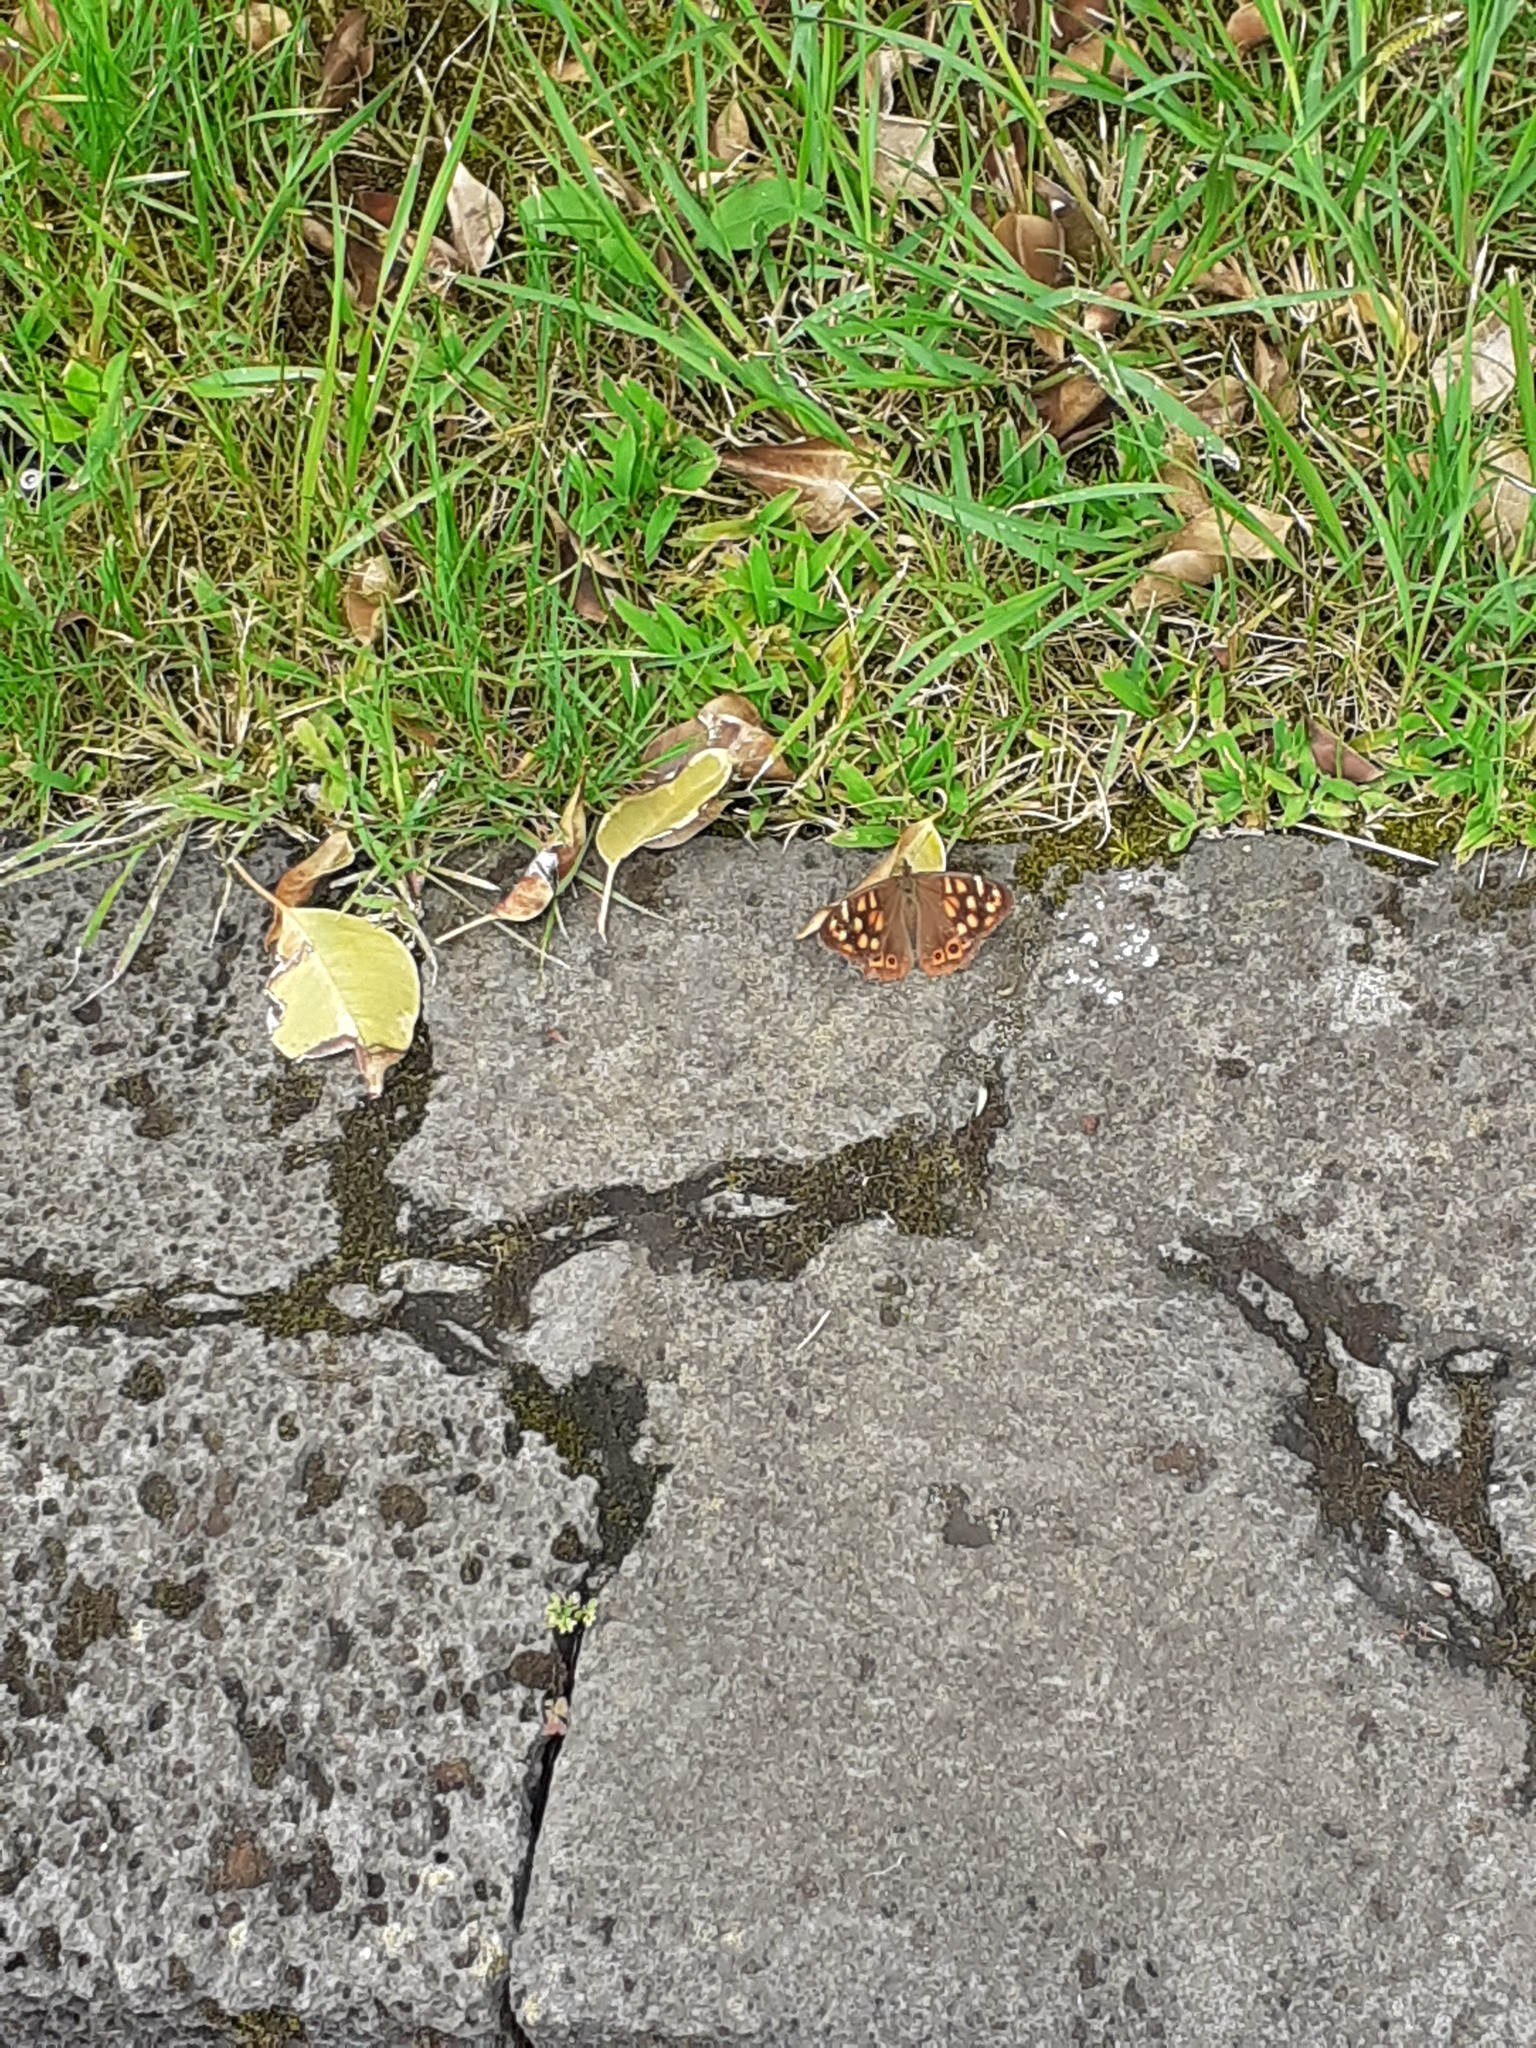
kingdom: Animalia
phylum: Arthropoda
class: Insecta
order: Lepidoptera
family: Nymphalidae
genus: Pararge
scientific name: Pararge aegeria
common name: Speckled wood
